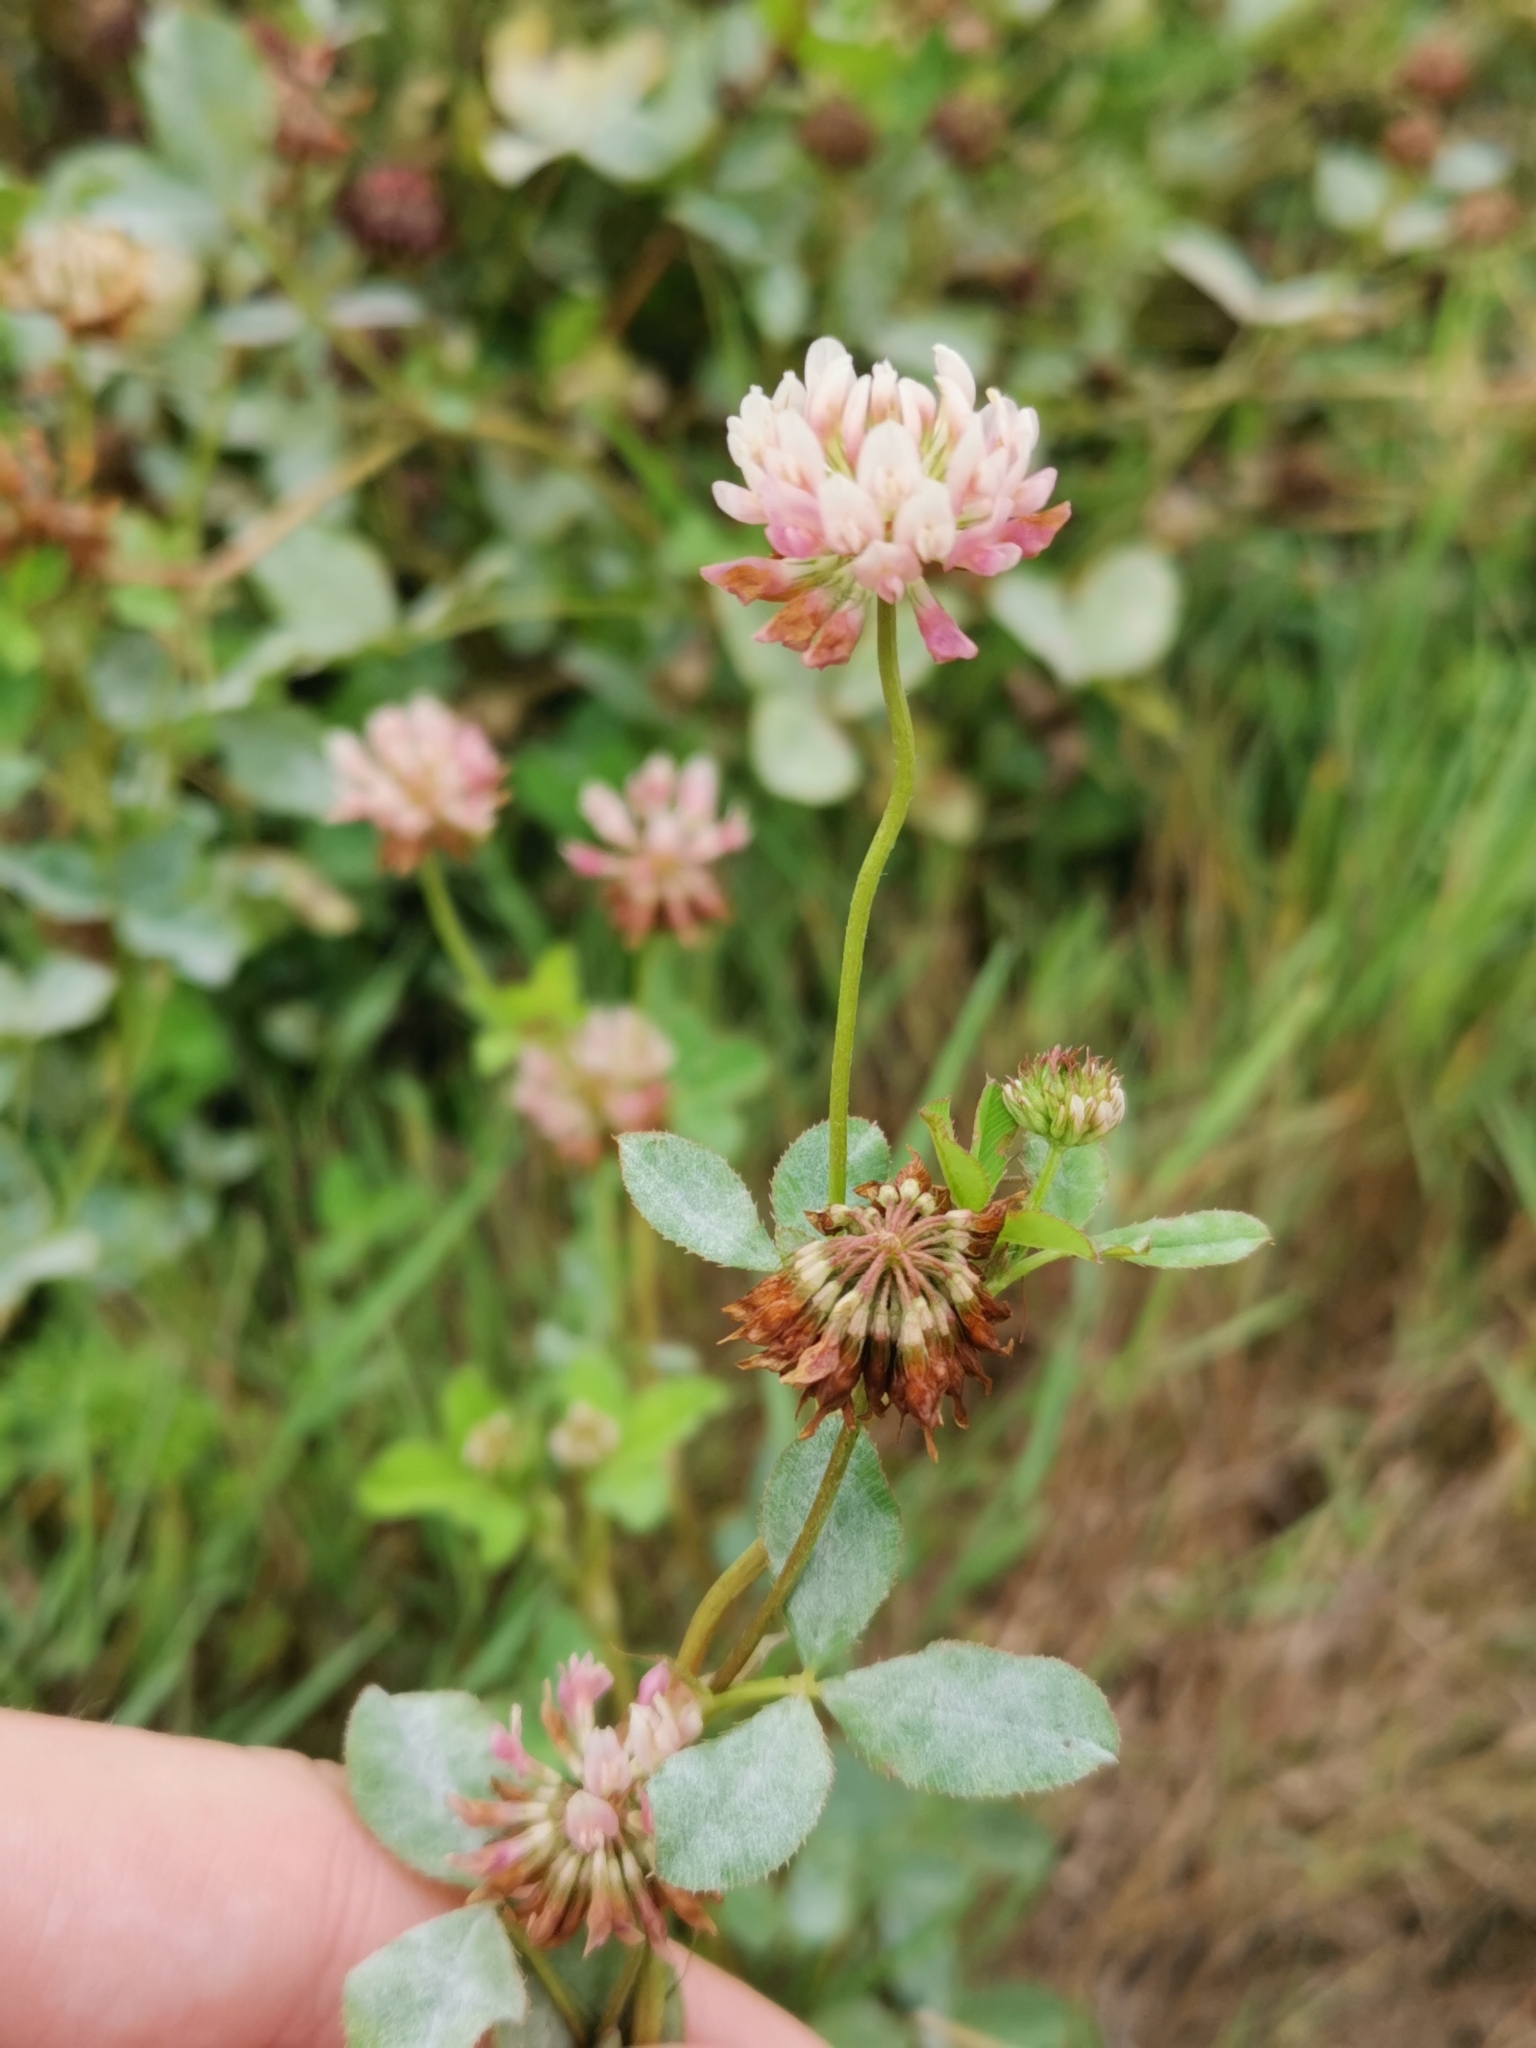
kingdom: Plantae
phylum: Tracheophyta
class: Magnoliopsida
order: Fabales
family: Fabaceae
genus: Trifolium
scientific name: Trifolium hybridum
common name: Alsike clover
